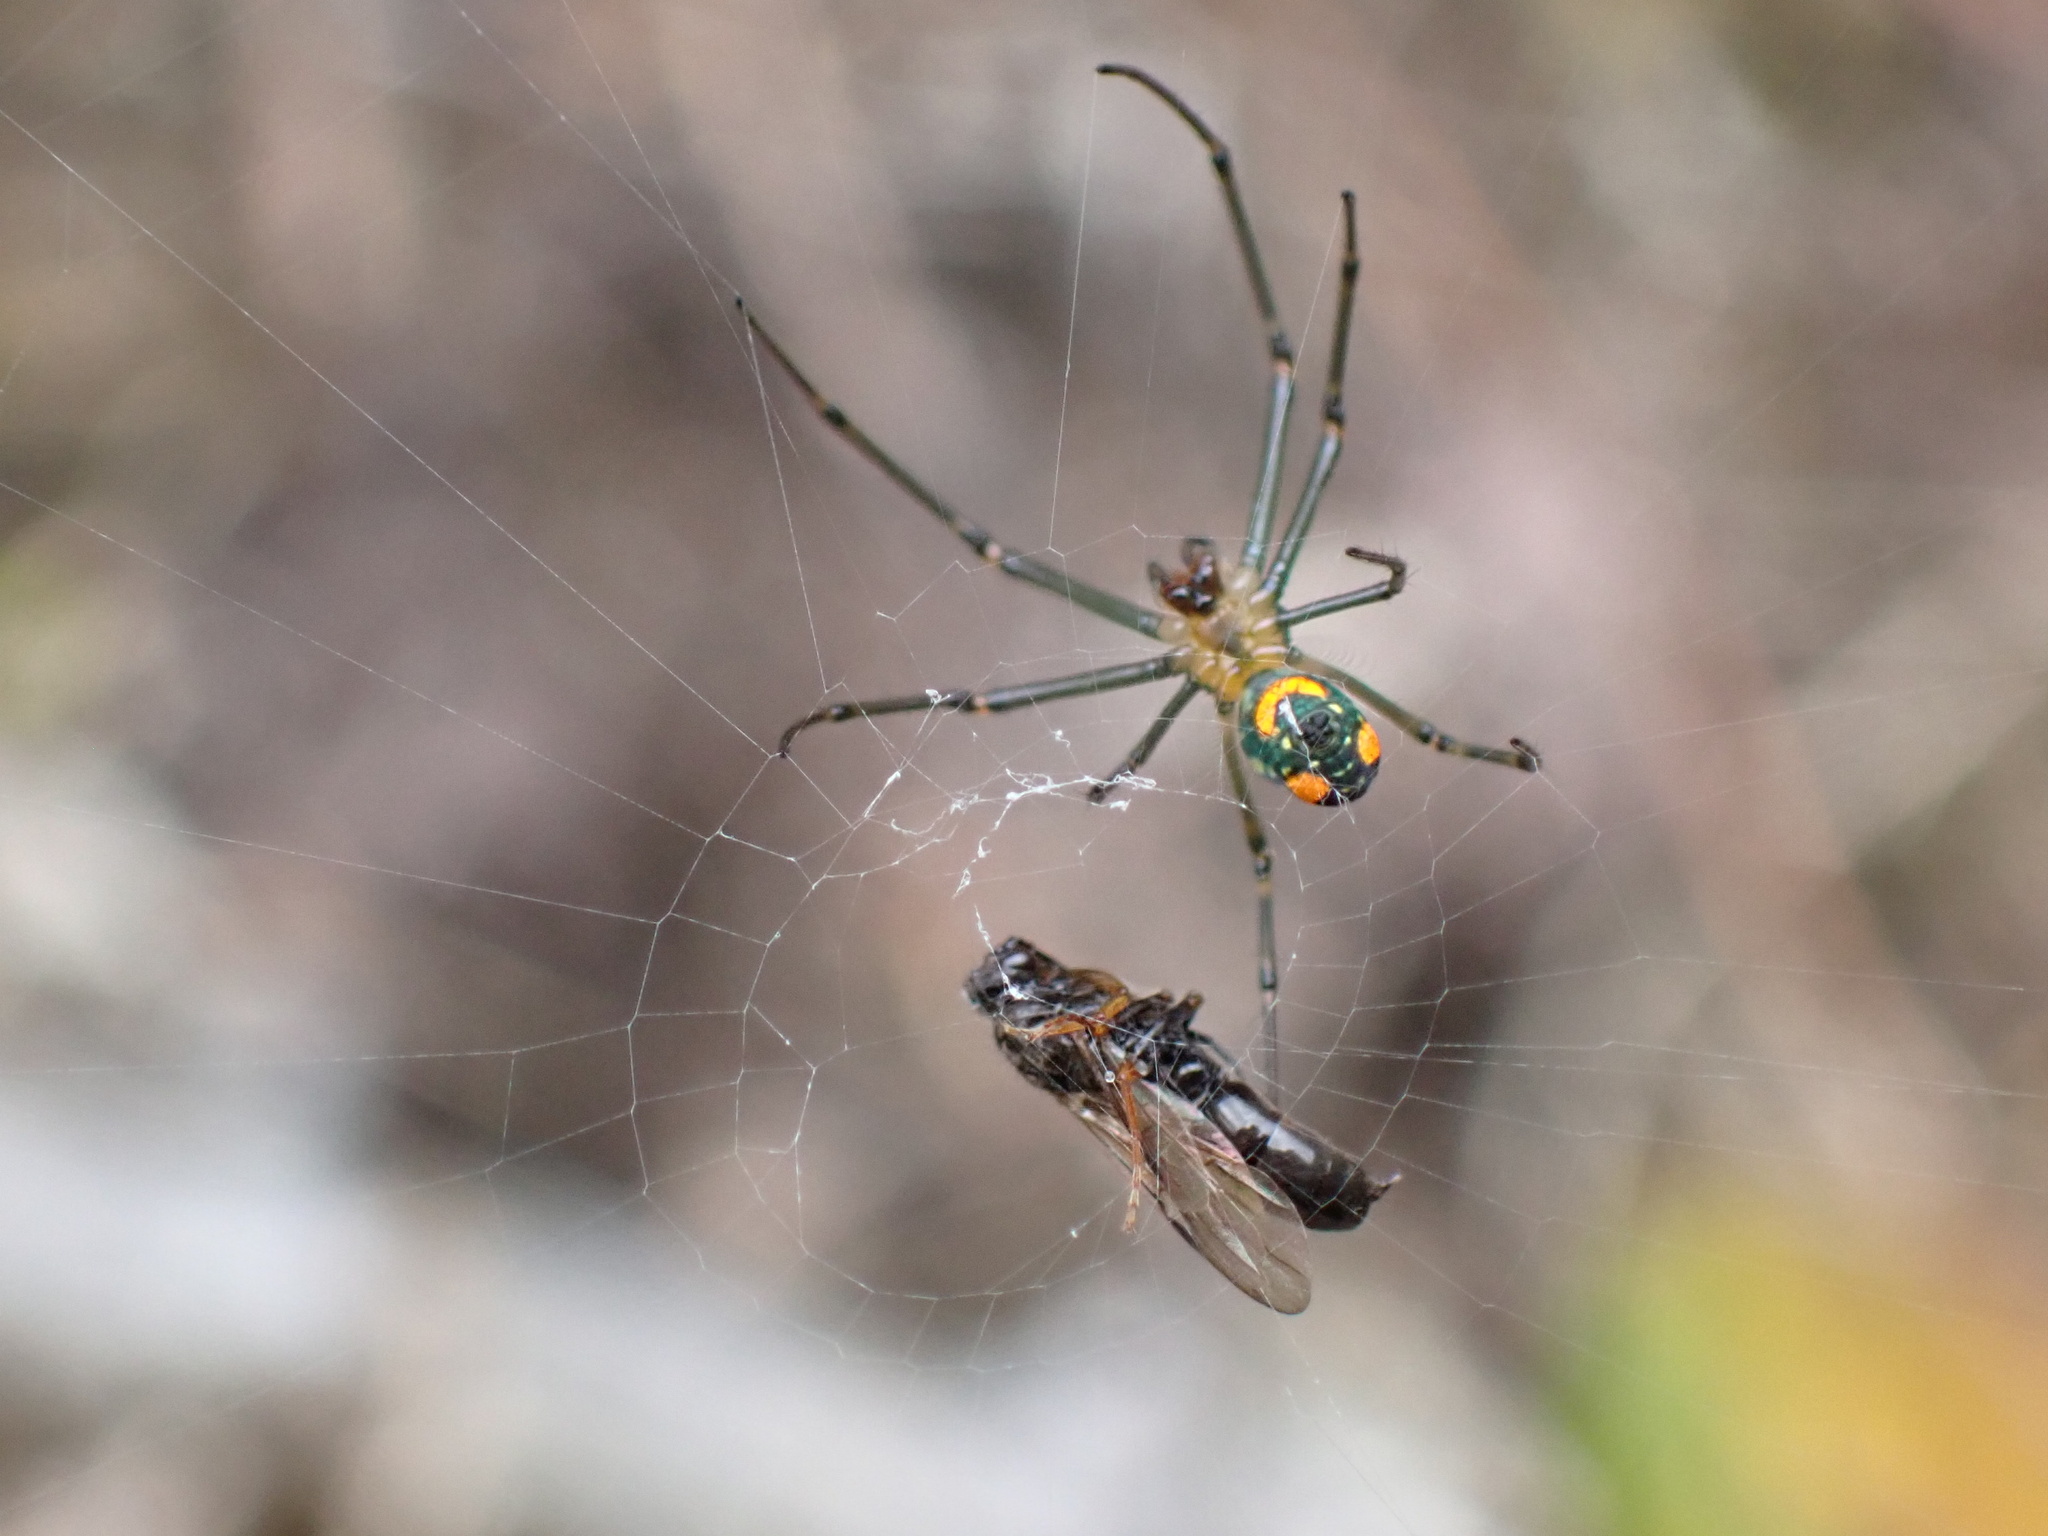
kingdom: Animalia
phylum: Arthropoda
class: Arachnida
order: Araneae
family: Araneidae
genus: Trichonephila
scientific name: Trichonephila clavipes
